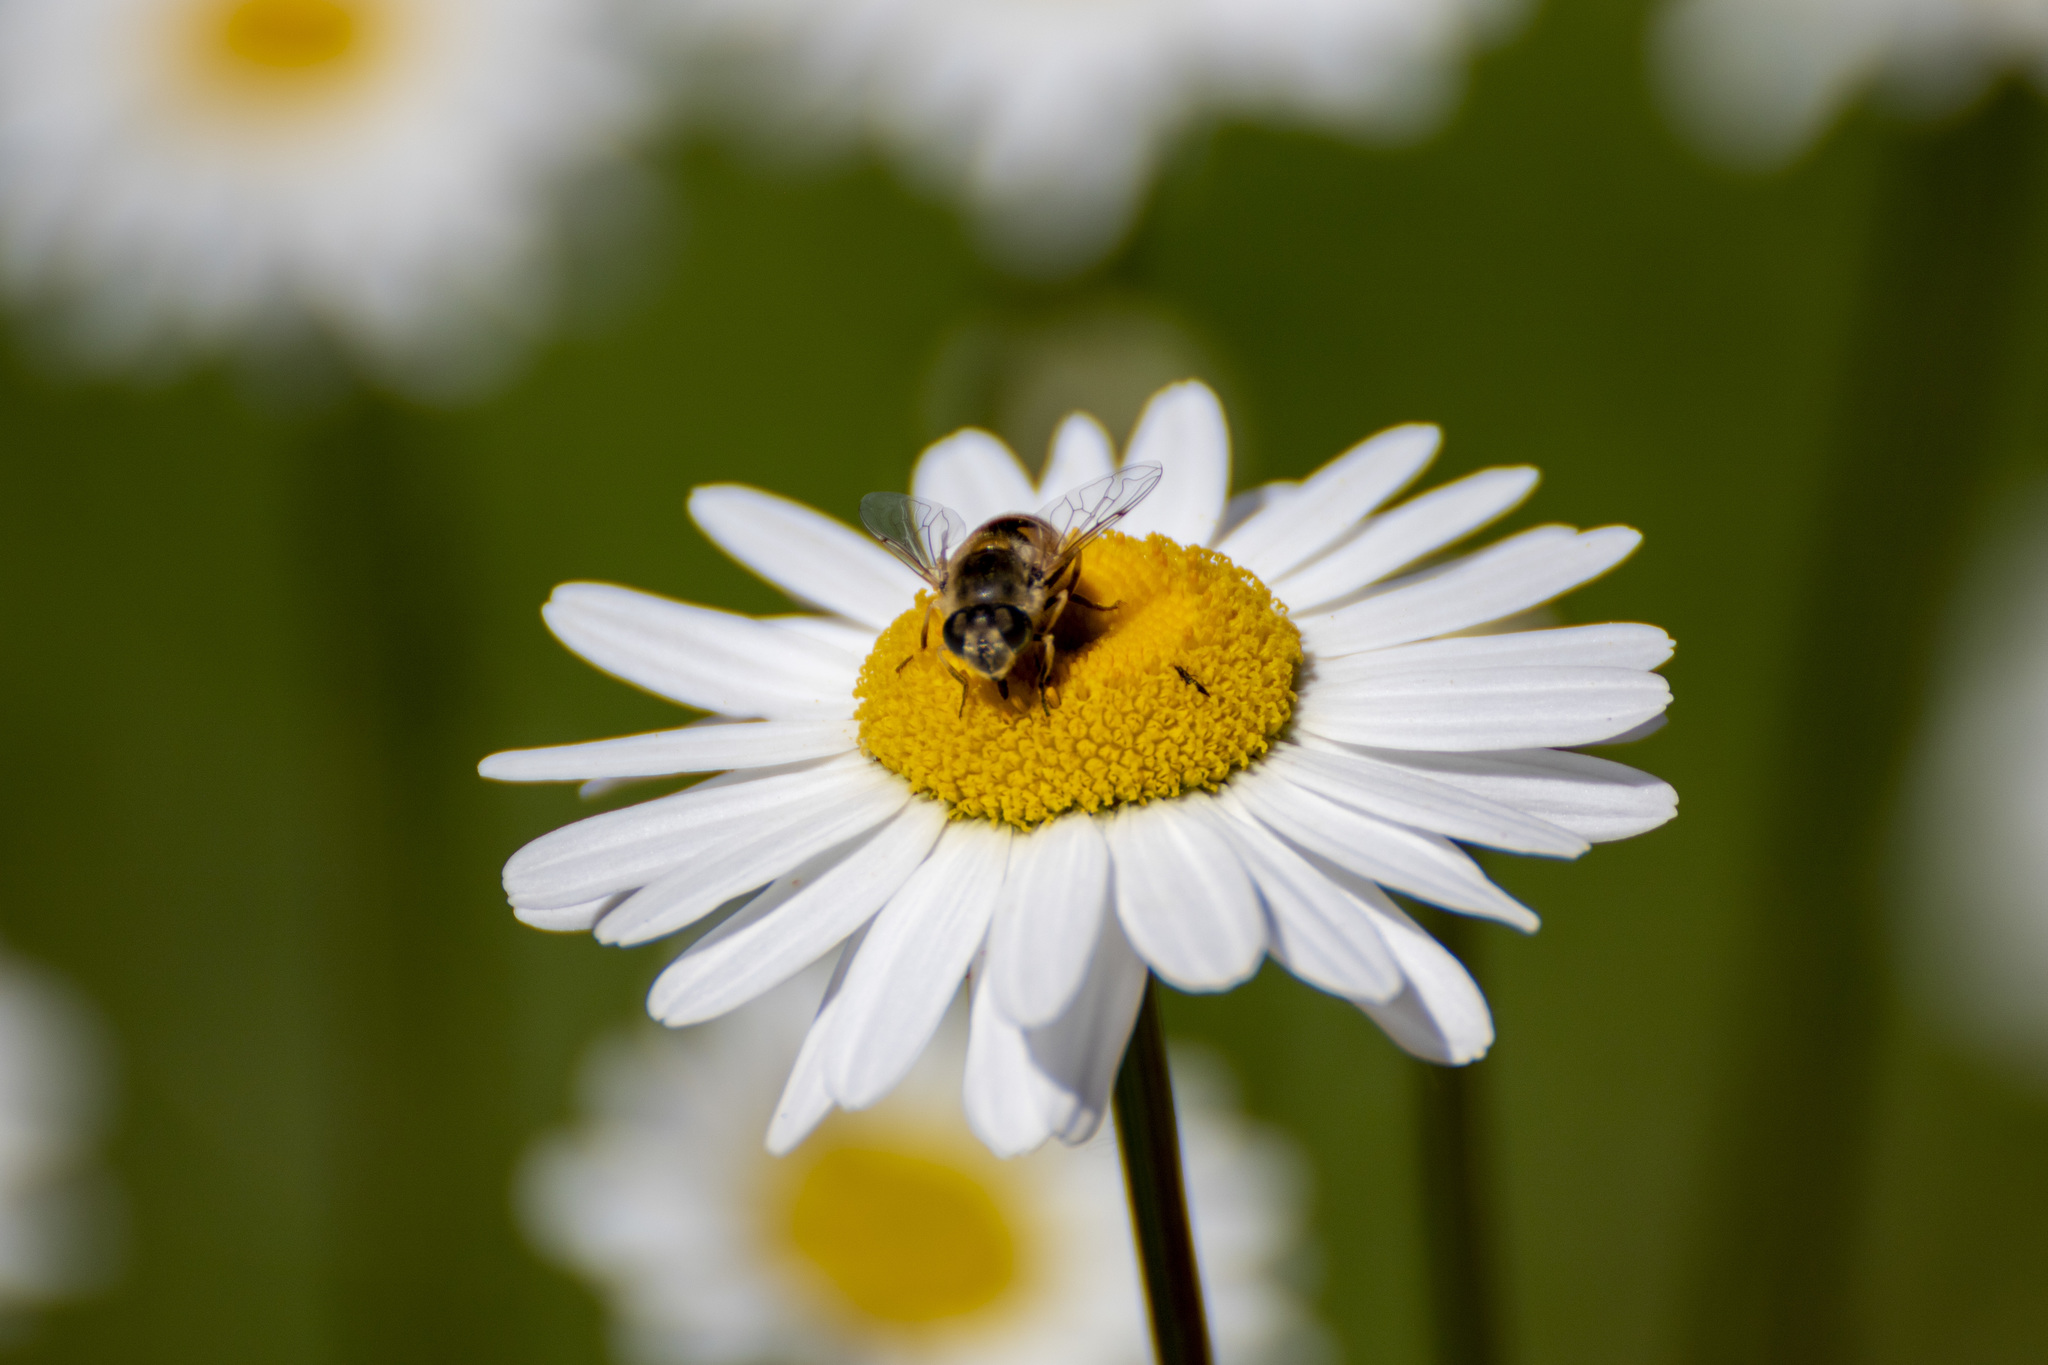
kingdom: Animalia
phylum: Arthropoda
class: Insecta
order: Diptera
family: Syrphidae
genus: Eristalis
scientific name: Eristalis arbustorum
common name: Hover fly
